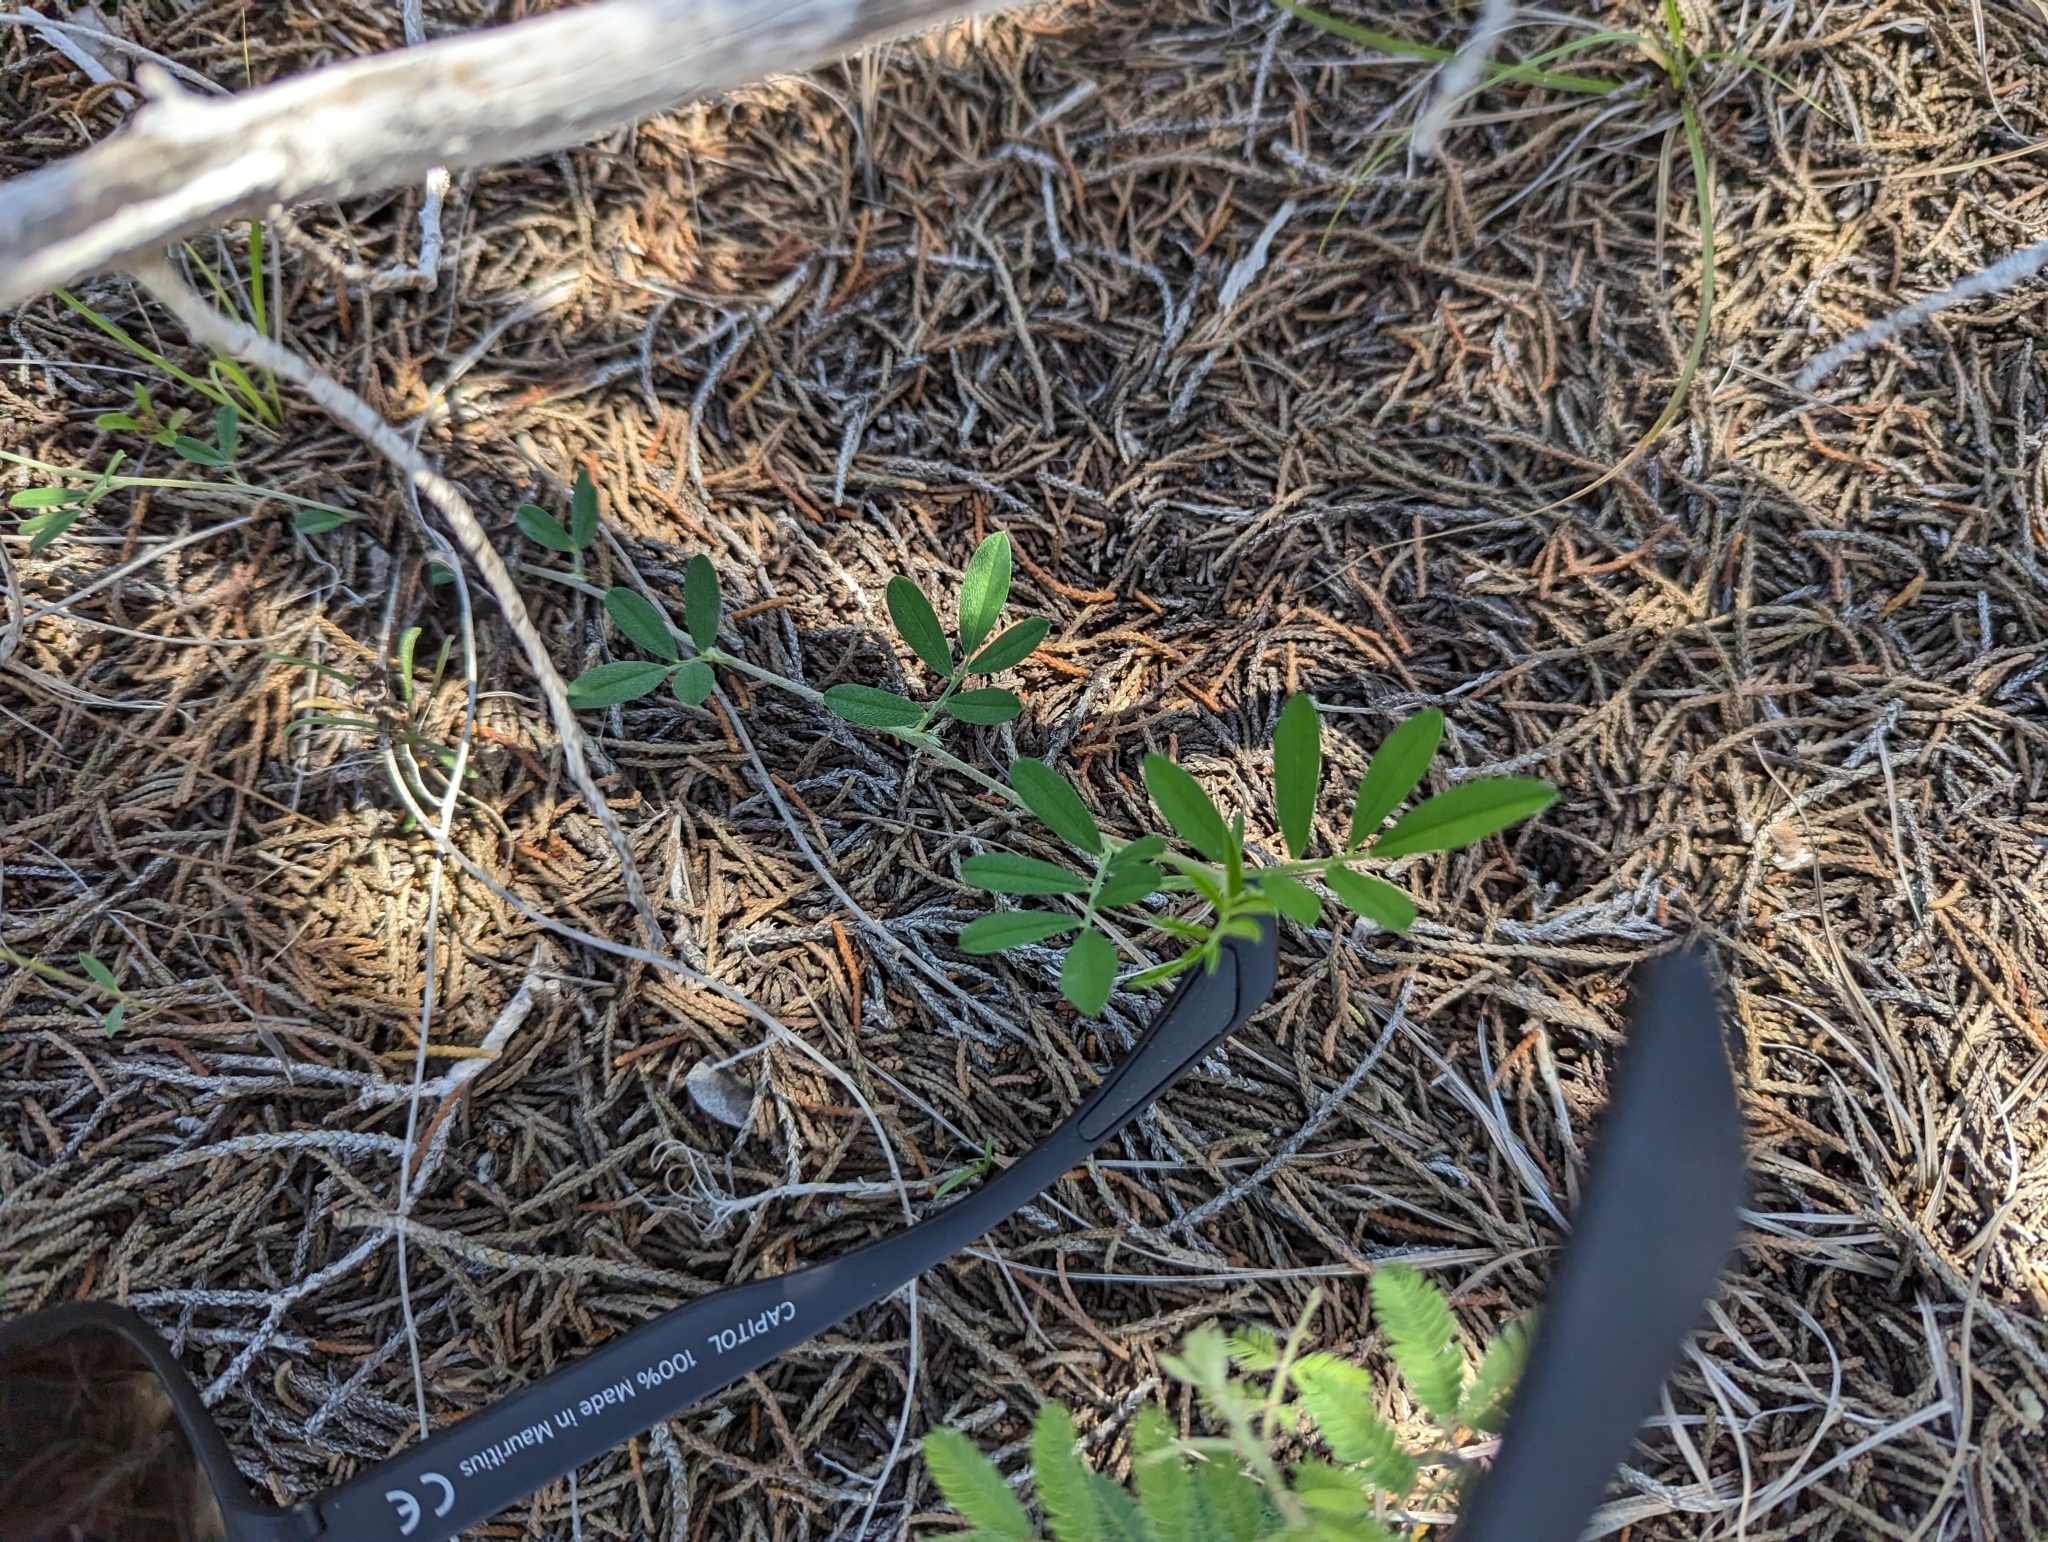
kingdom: Plantae
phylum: Tracheophyta
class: Magnoliopsida
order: Fabales
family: Fabaceae
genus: Indigofera
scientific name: Indigofera miniata
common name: Coast indigo
